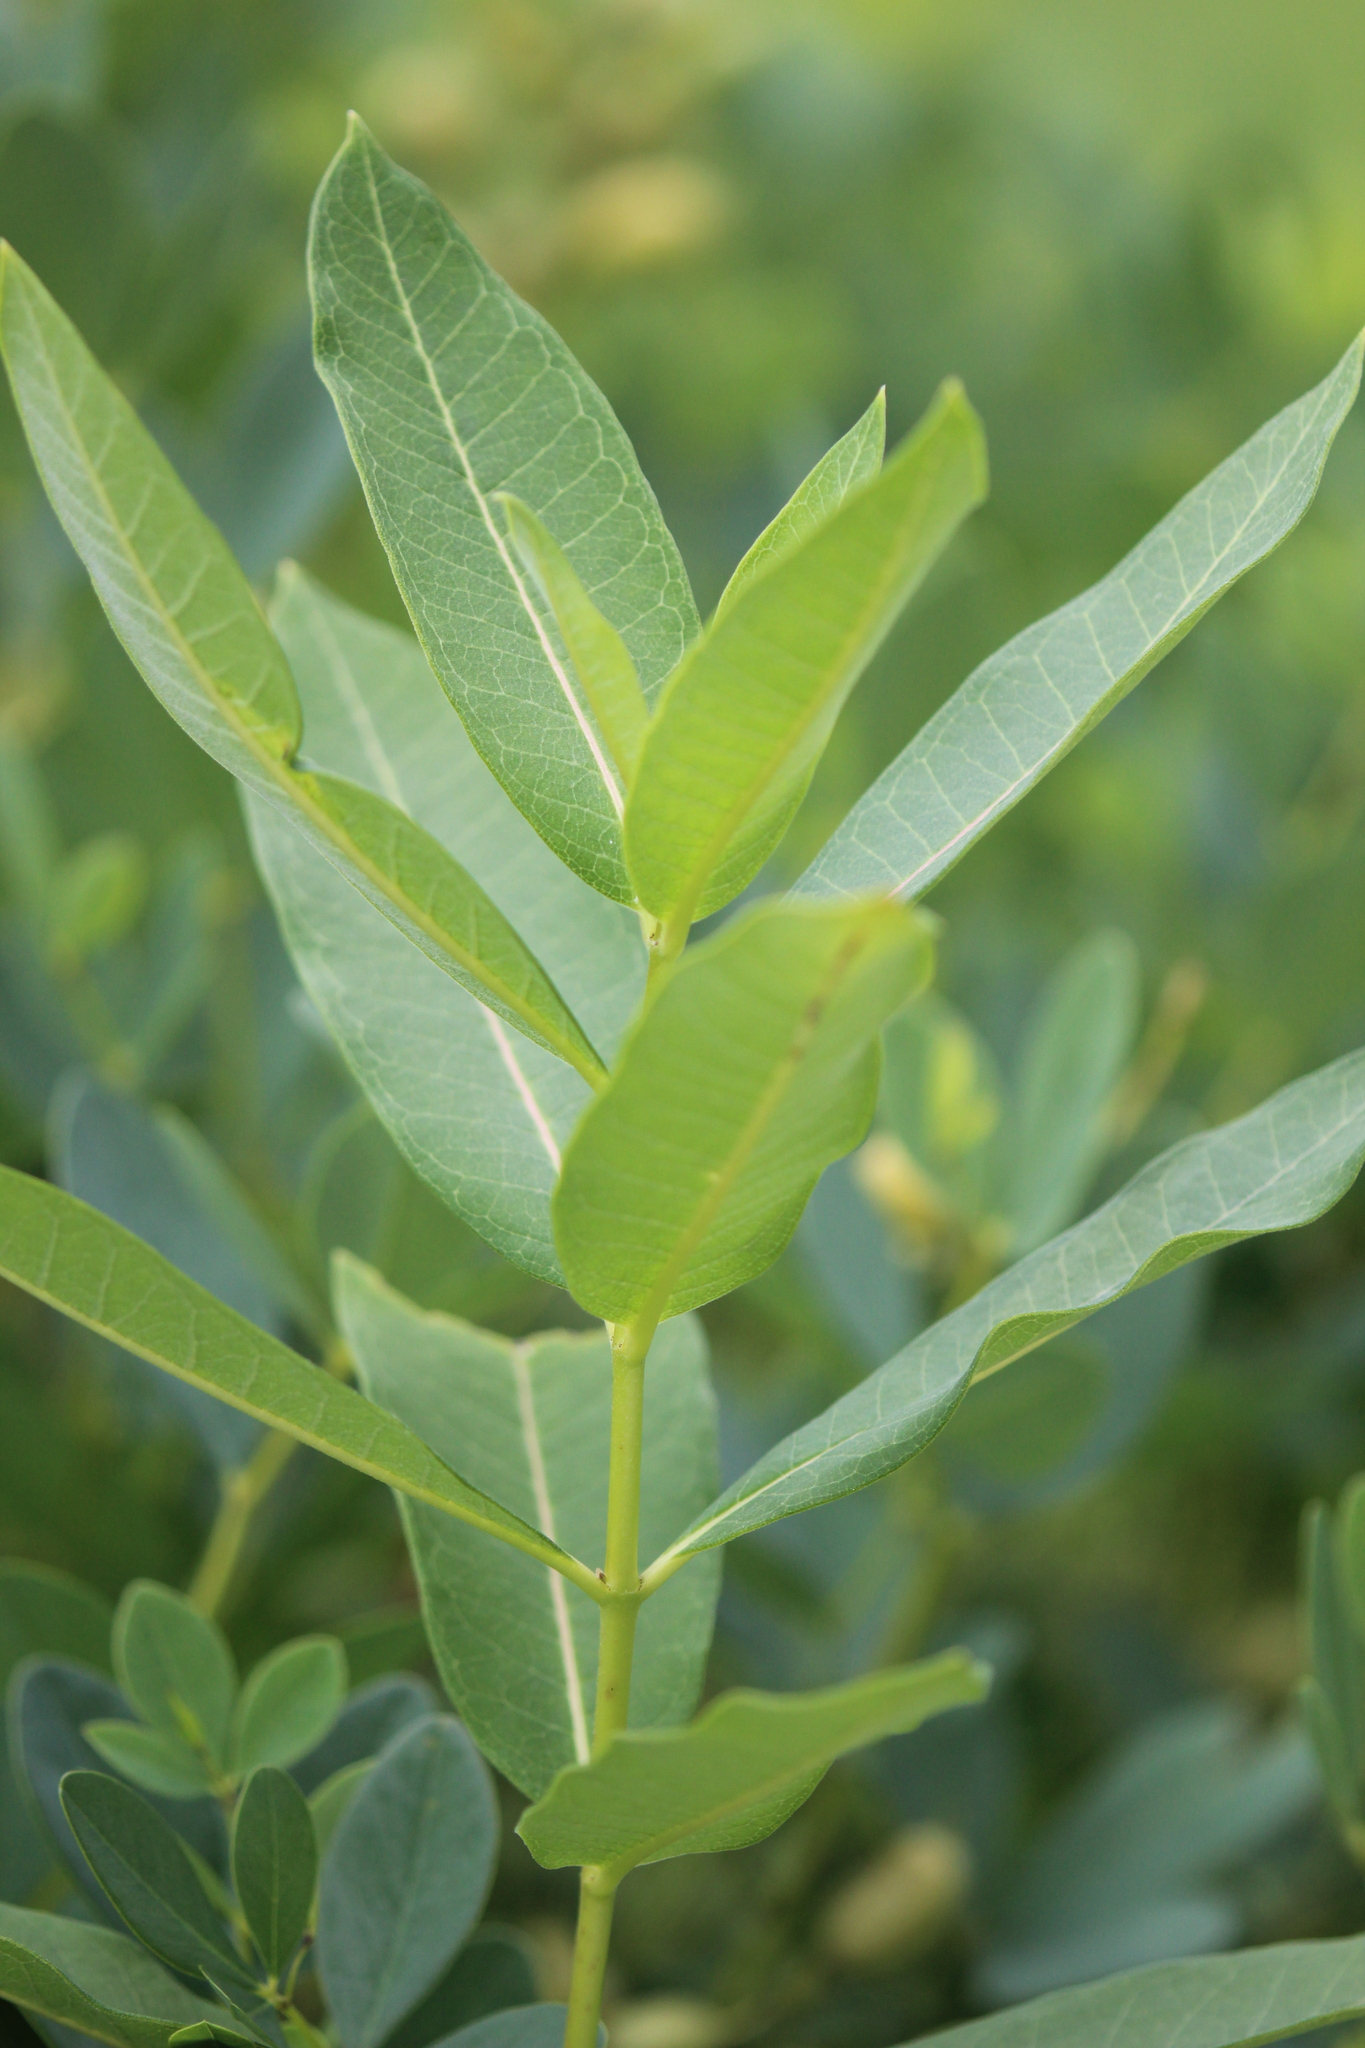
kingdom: Plantae
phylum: Tracheophyta
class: Magnoliopsida
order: Gentianales
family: Apocynaceae
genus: Asclepias
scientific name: Asclepias syriaca
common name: Common milkweed
